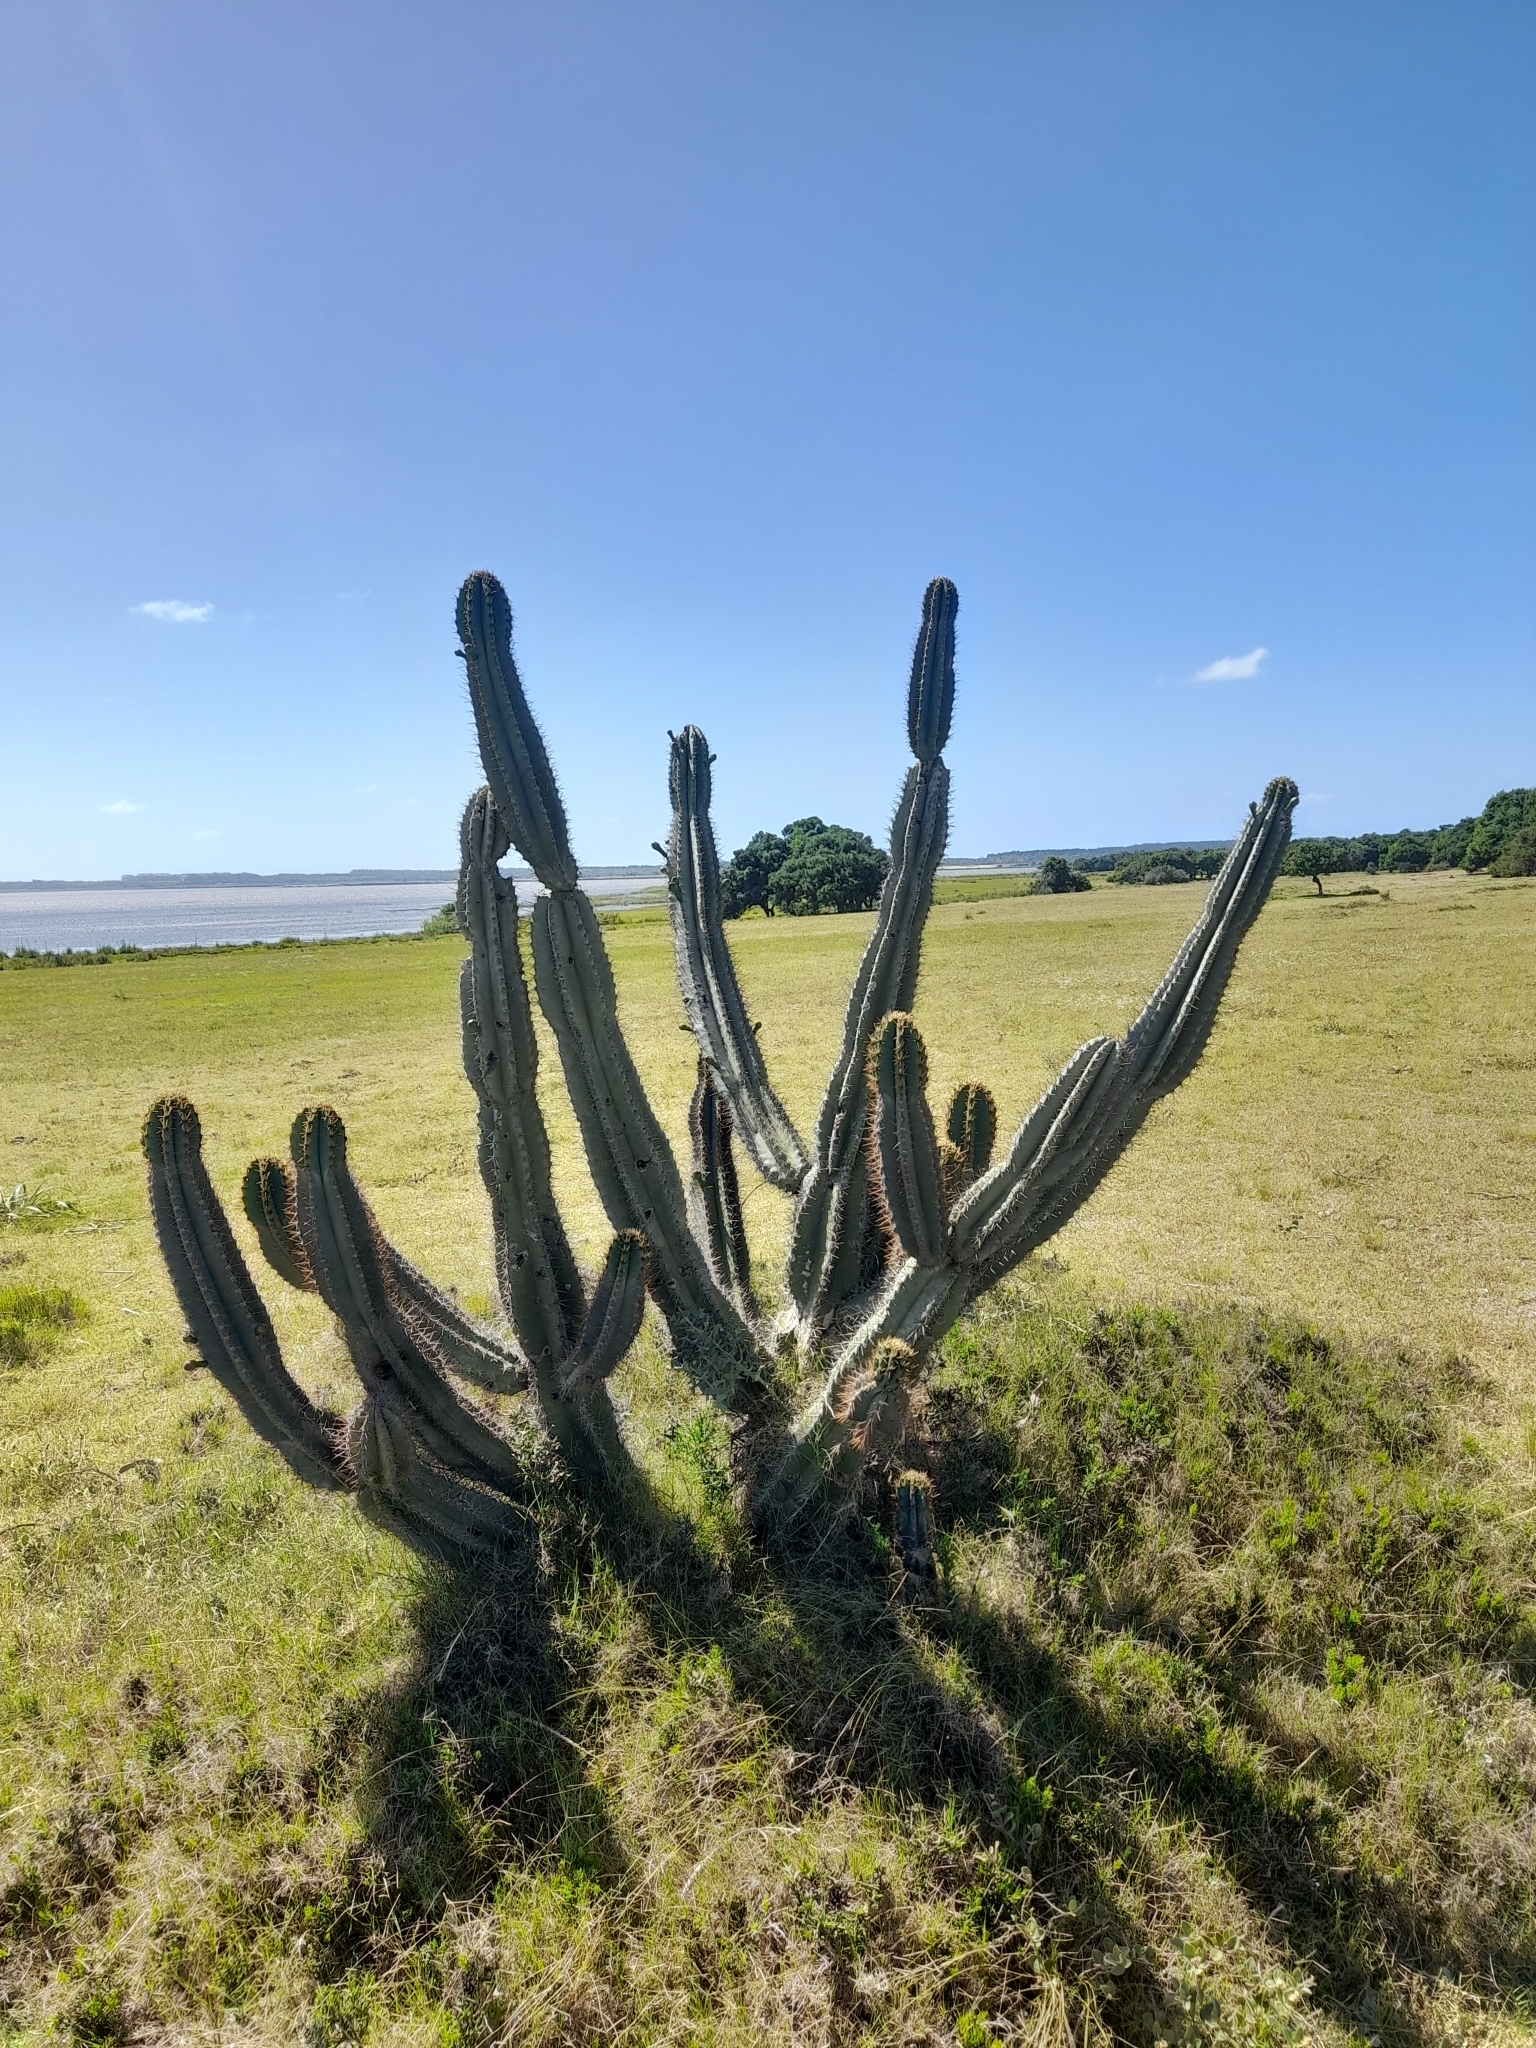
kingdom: Plantae
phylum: Tracheophyta
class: Magnoliopsida
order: Caryophyllales
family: Cactaceae
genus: Cereus
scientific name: Cereus hildmannianus
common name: Hedge cactus
